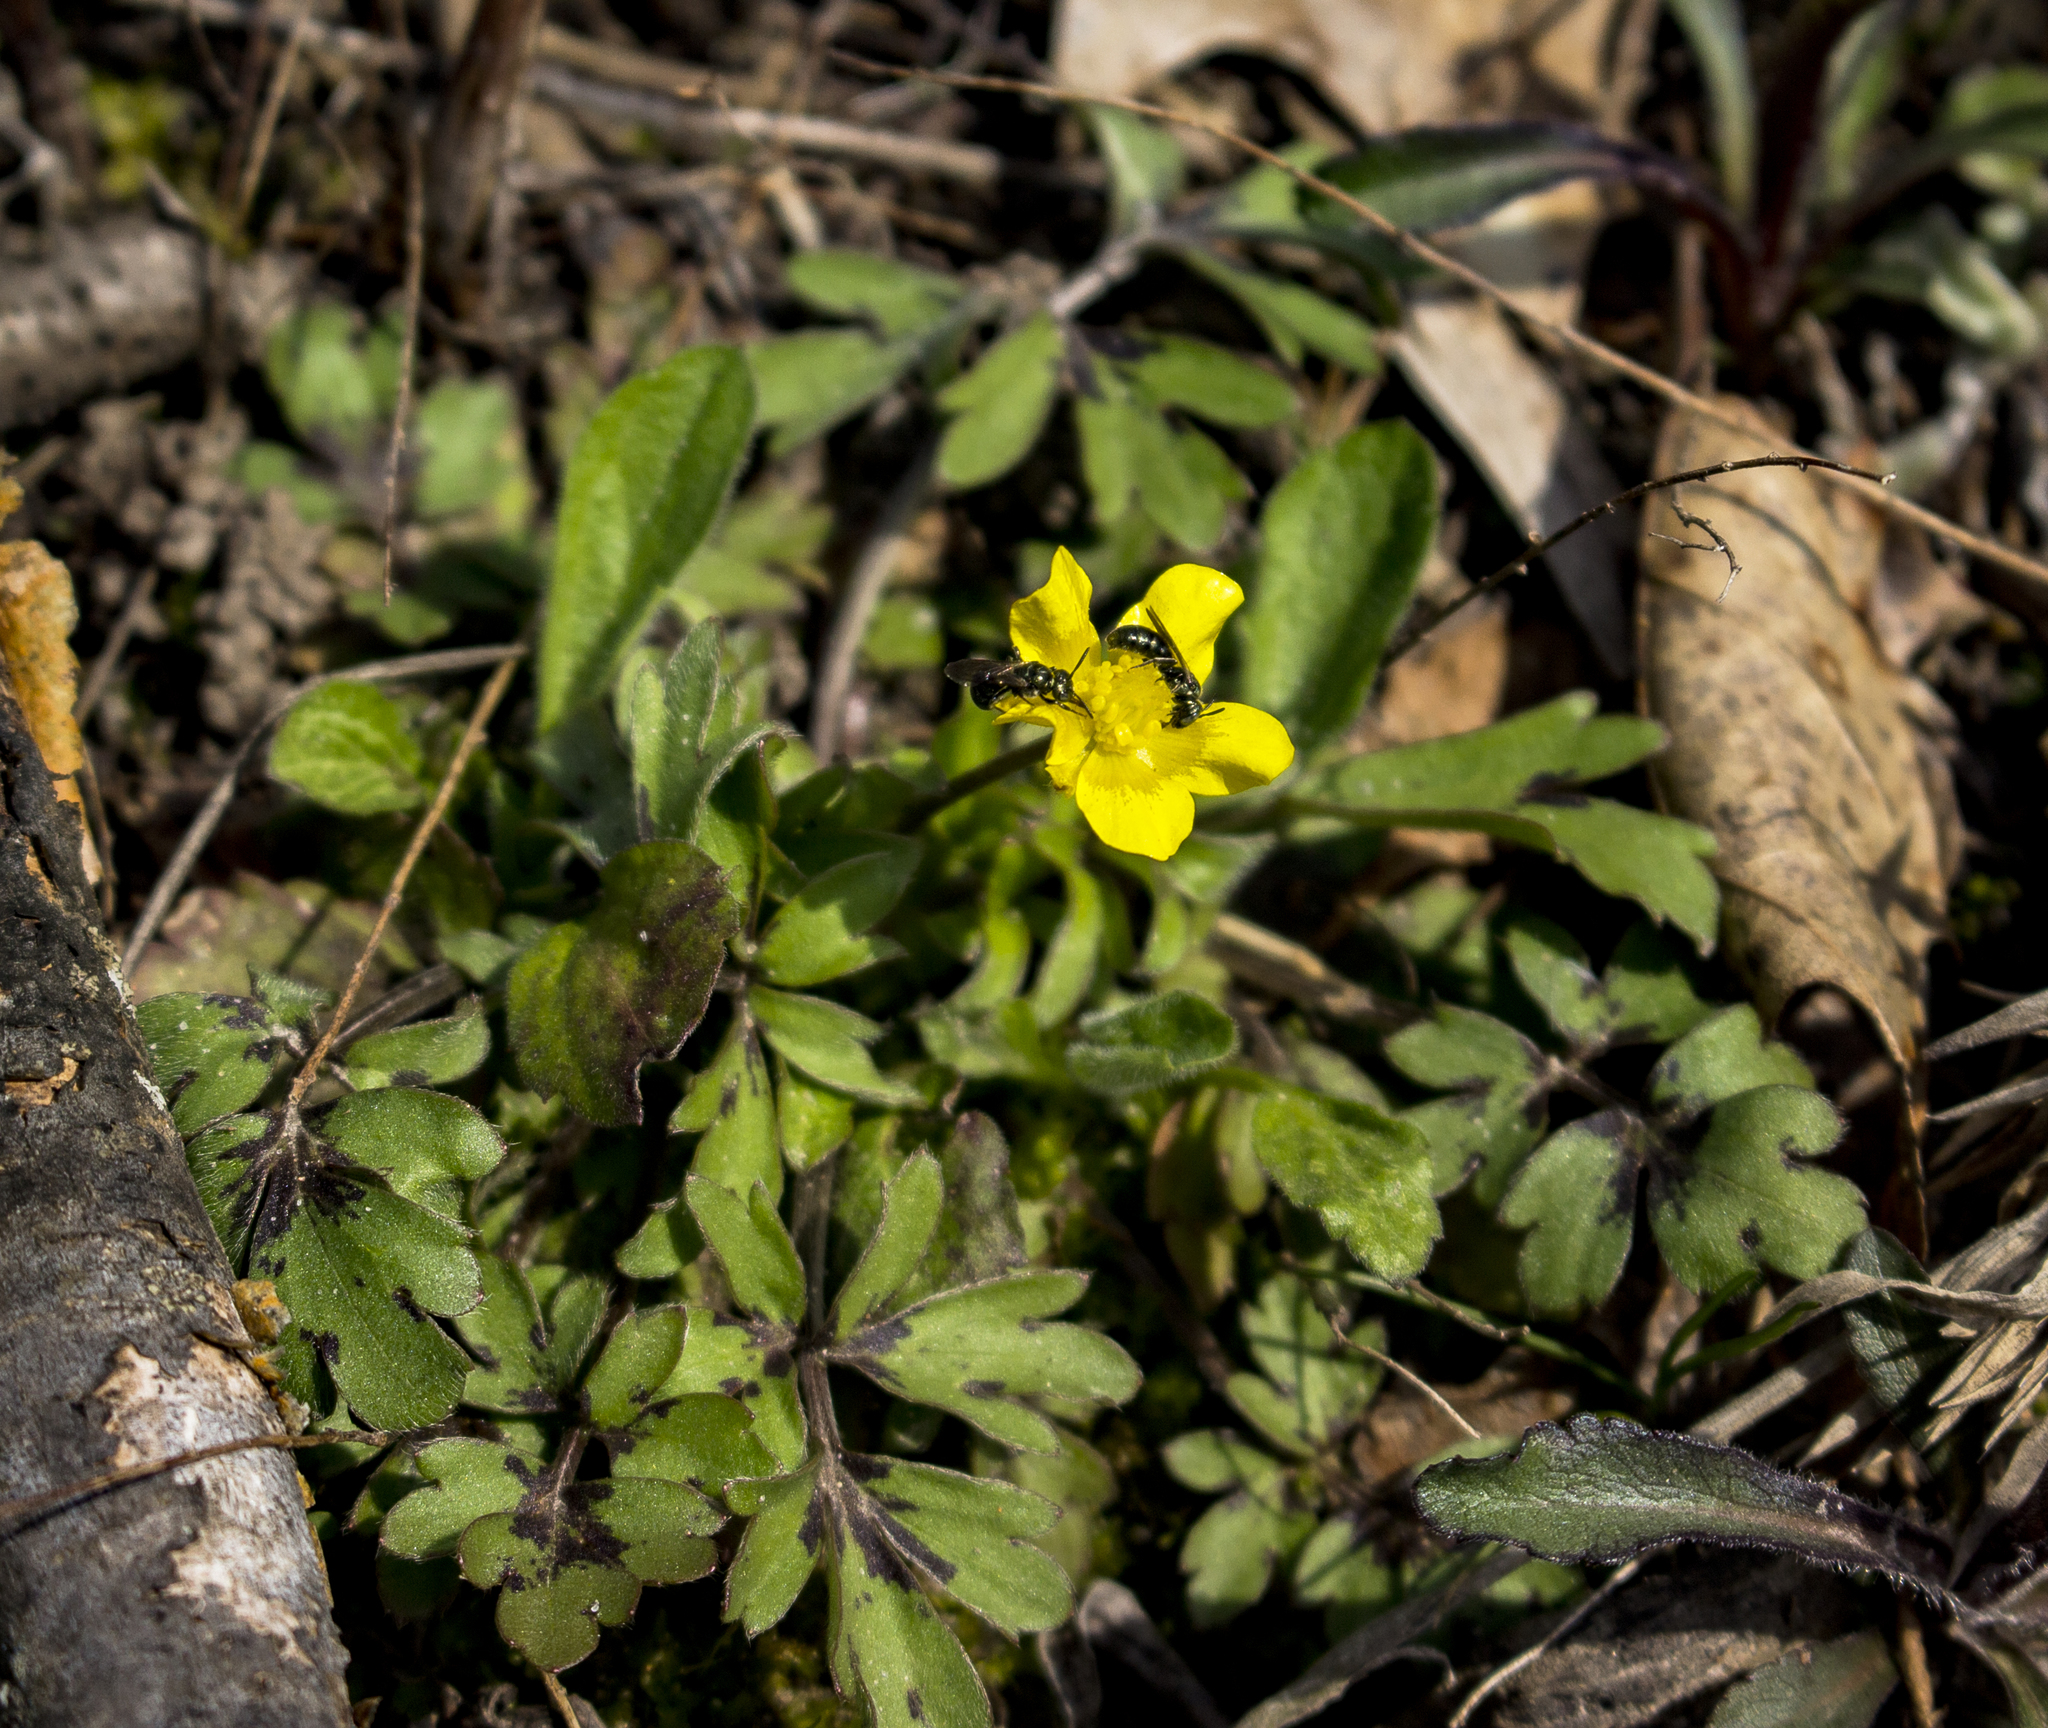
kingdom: Plantae
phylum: Tracheophyta
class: Magnoliopsida
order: Ranunculales
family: Ranunculaceae
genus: Ranunculus
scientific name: Ranunculus fascicularis
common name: Early buttercup
